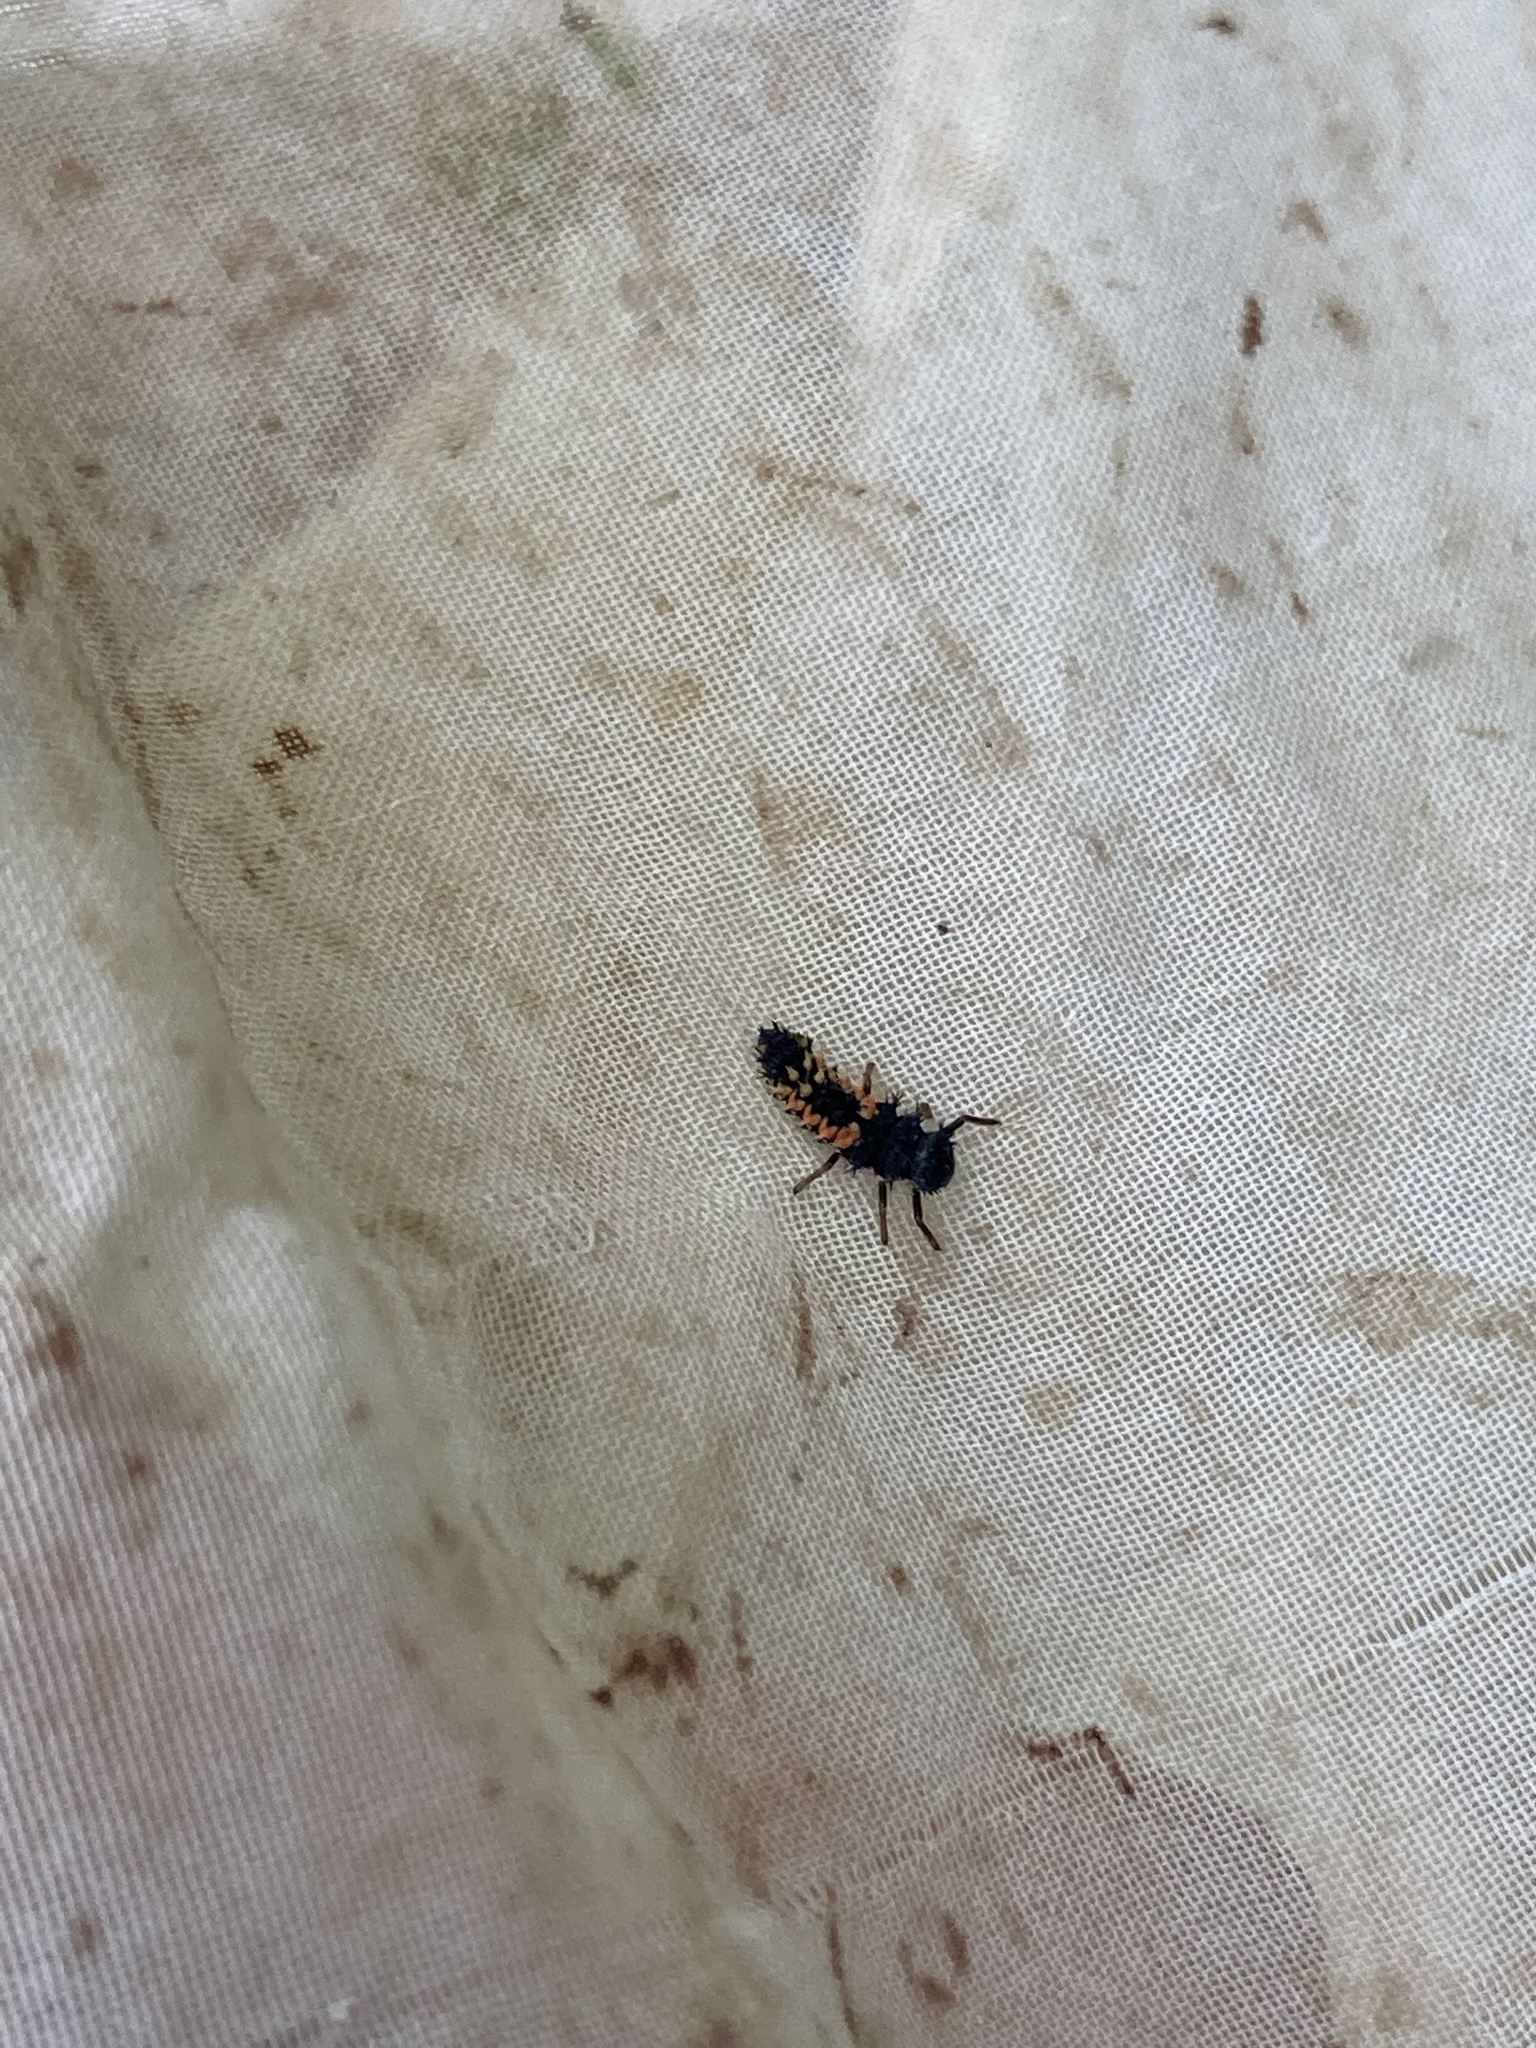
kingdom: Animalia
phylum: Arthropoda
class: Insecta
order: Coleoptera
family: Coccinellidae
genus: Harmonia
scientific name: Harmonia axyridis
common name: Harlequin ladybird
